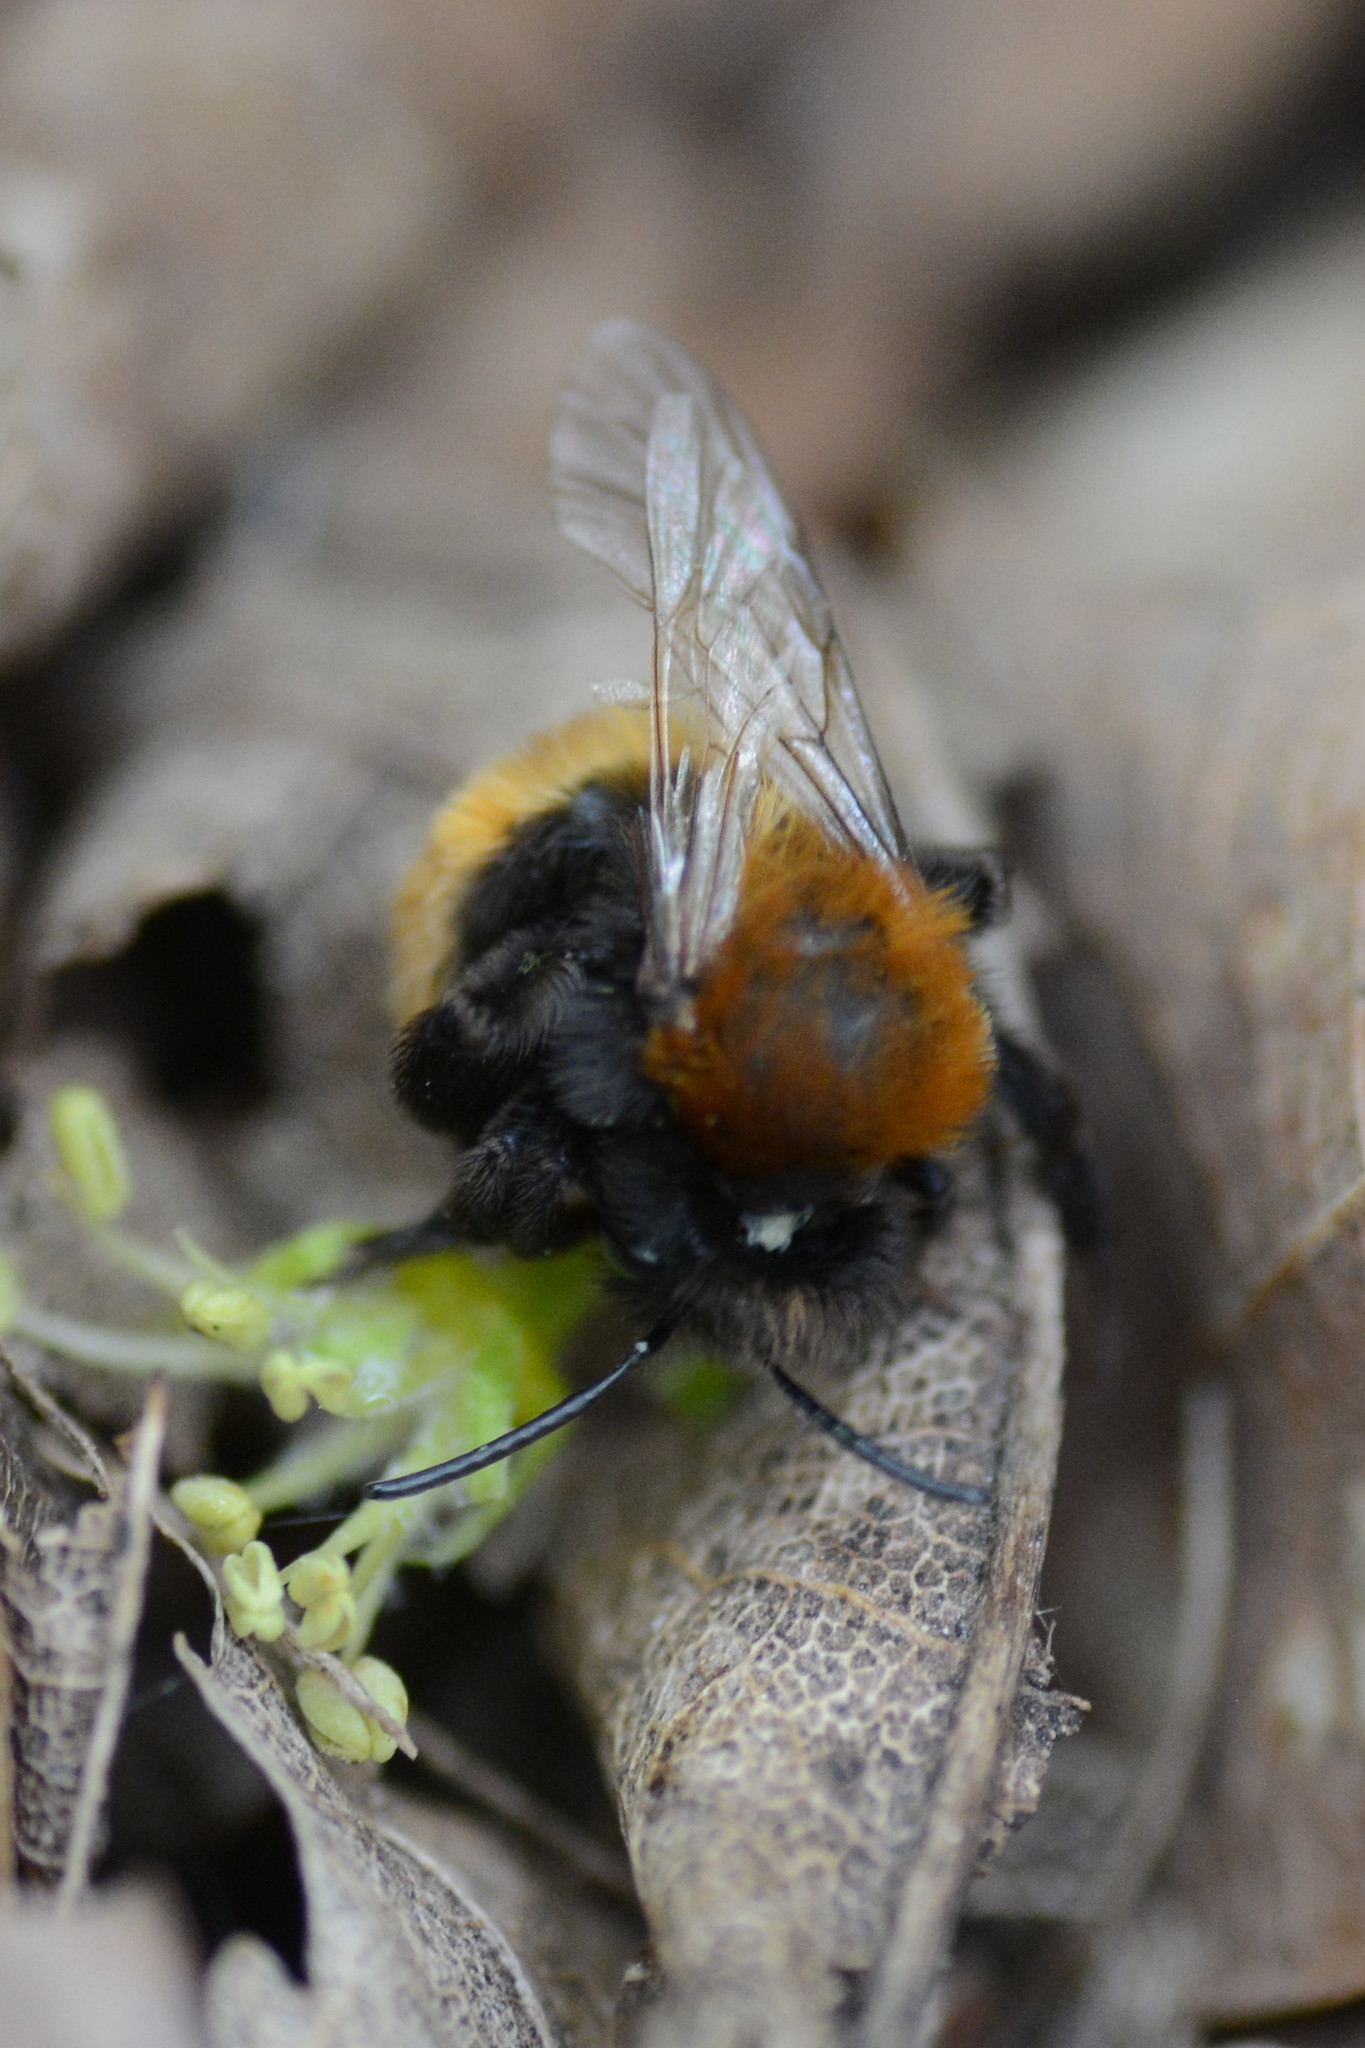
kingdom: Animalia
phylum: Arthropoda
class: Insecta
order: Hymenoptera
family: Andrenidae
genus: Andrena
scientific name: Andrena fulva
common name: Tawny mining bee
